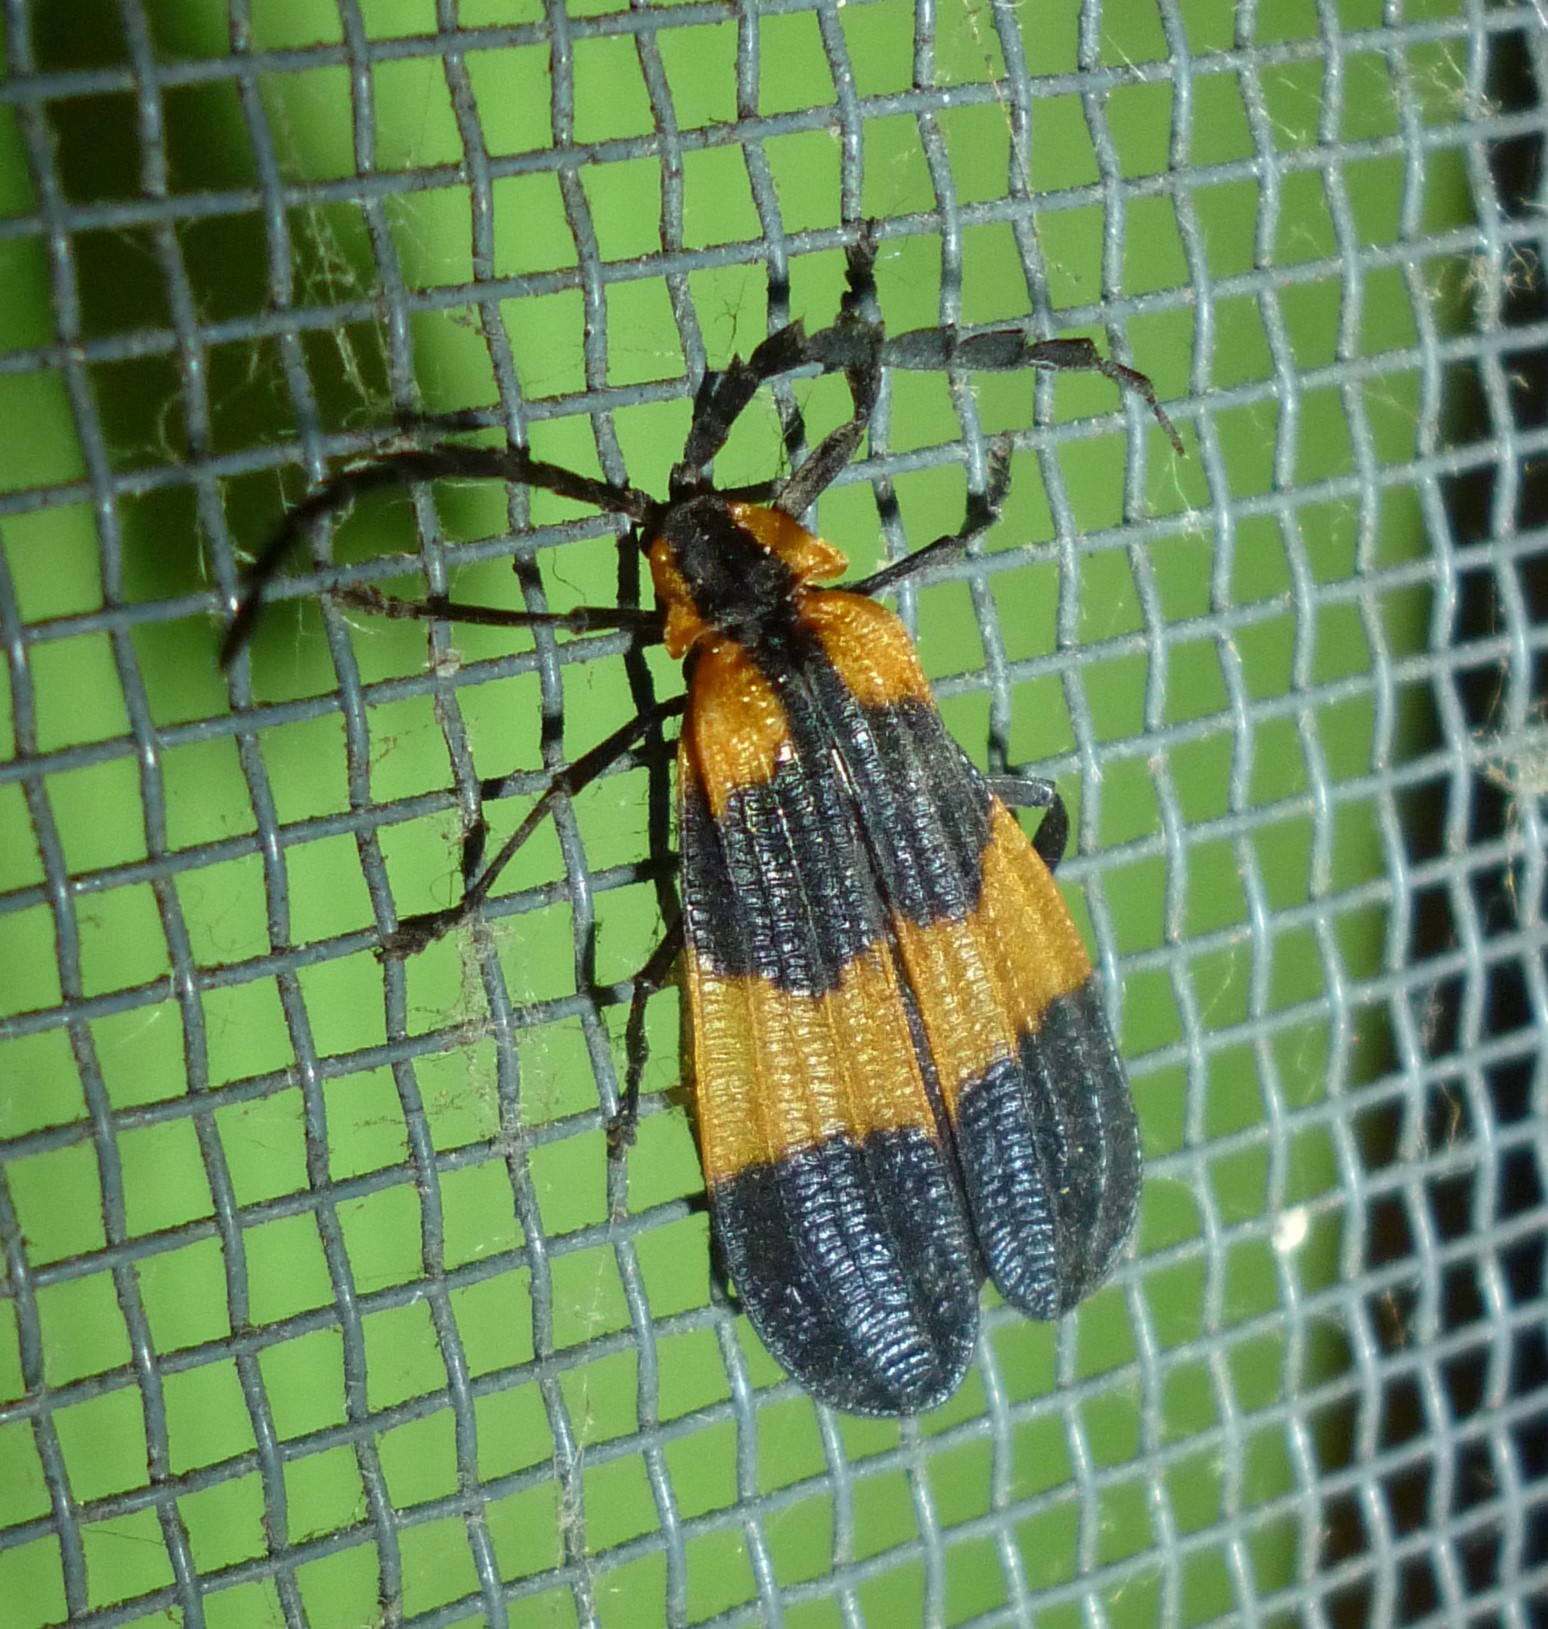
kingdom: Animalia
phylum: Arthropoda
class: Insecta
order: Coleoptera
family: Lycidae
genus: Calopteron
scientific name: Calopteron reticulatum
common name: Banded net-winged beetle
